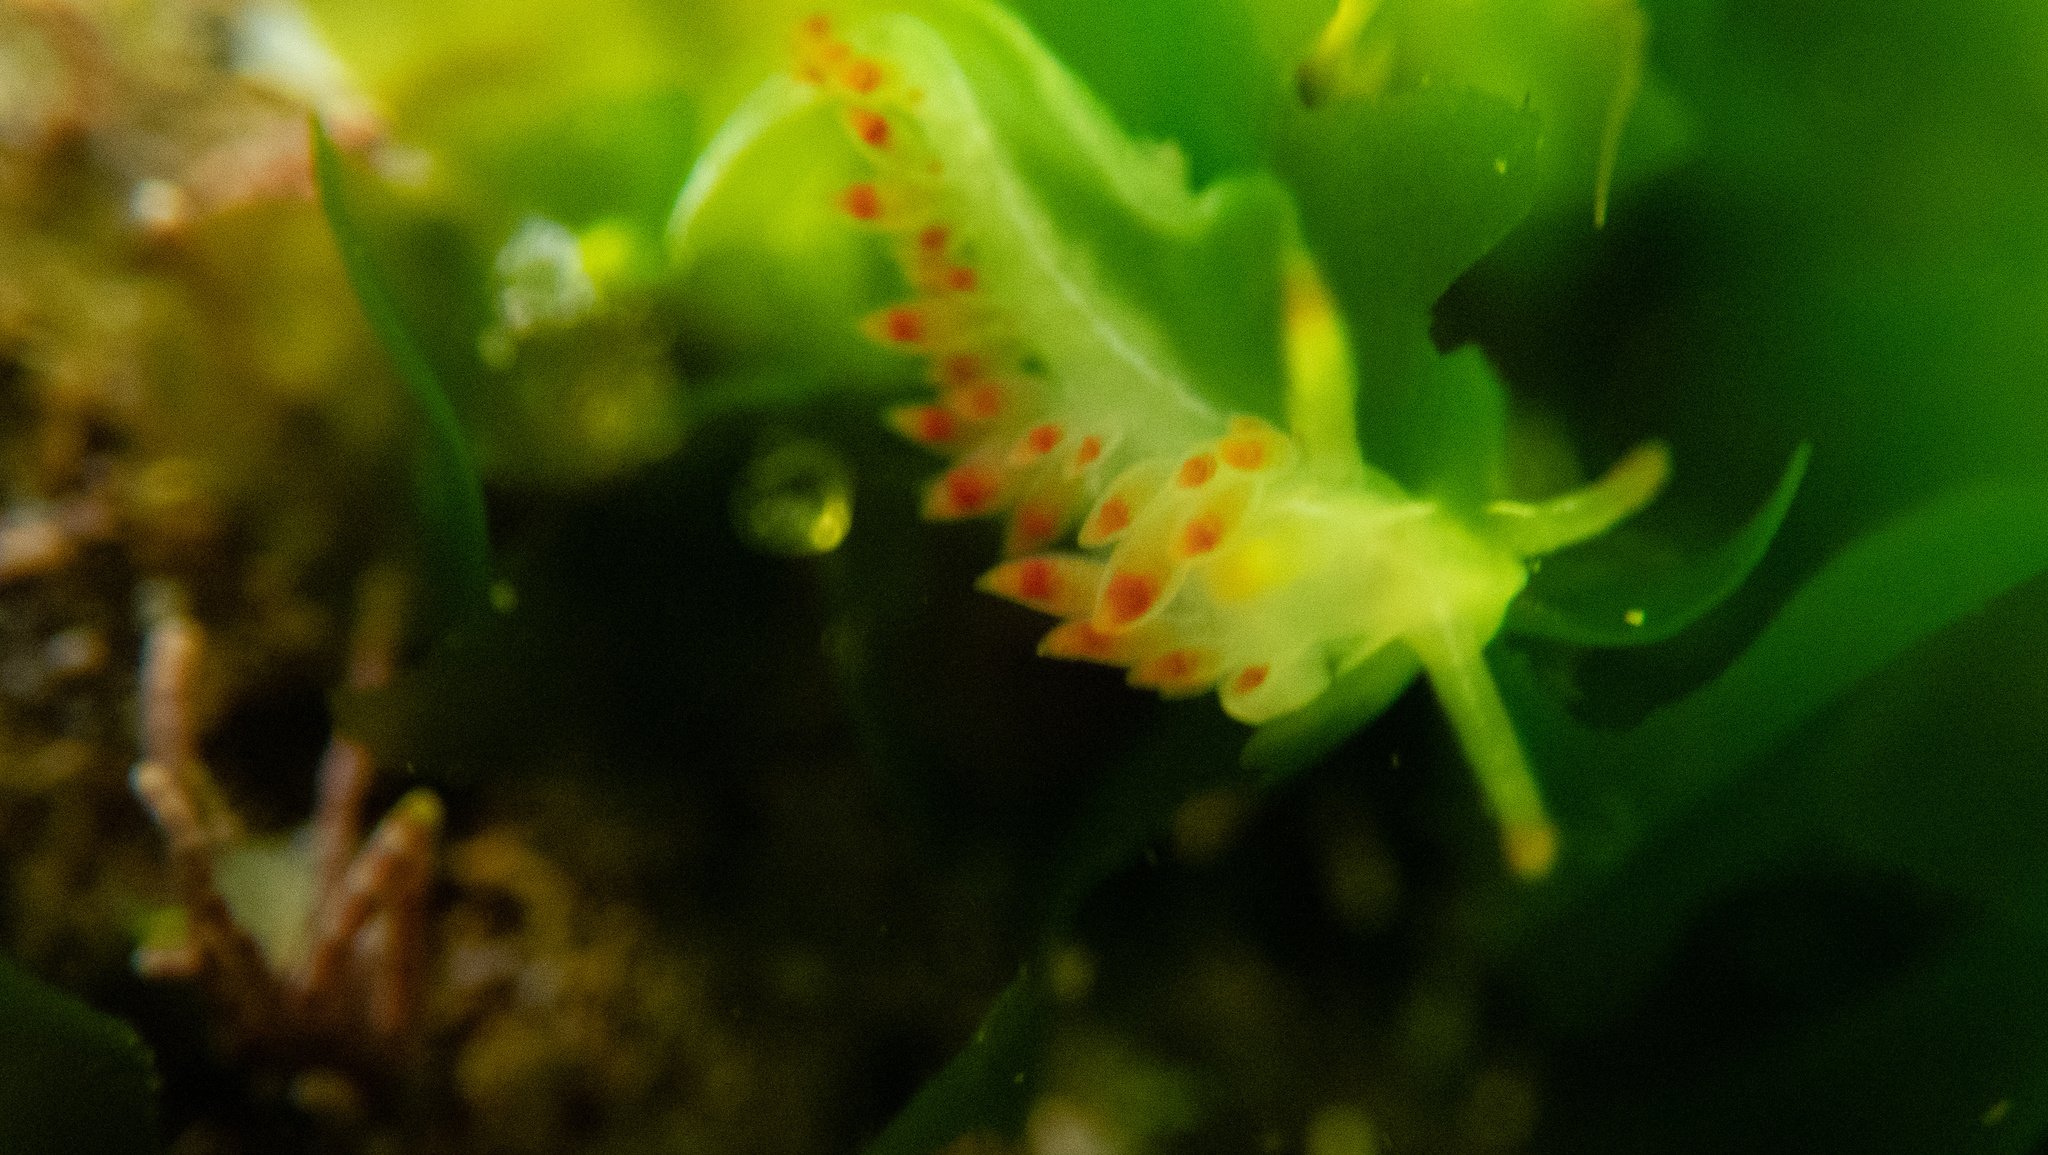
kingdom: Animalia
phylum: Mollusca
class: Gastropoda
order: Nudibranchia
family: Coryphellidae
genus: Coryphella
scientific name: Coryphella trilineata
